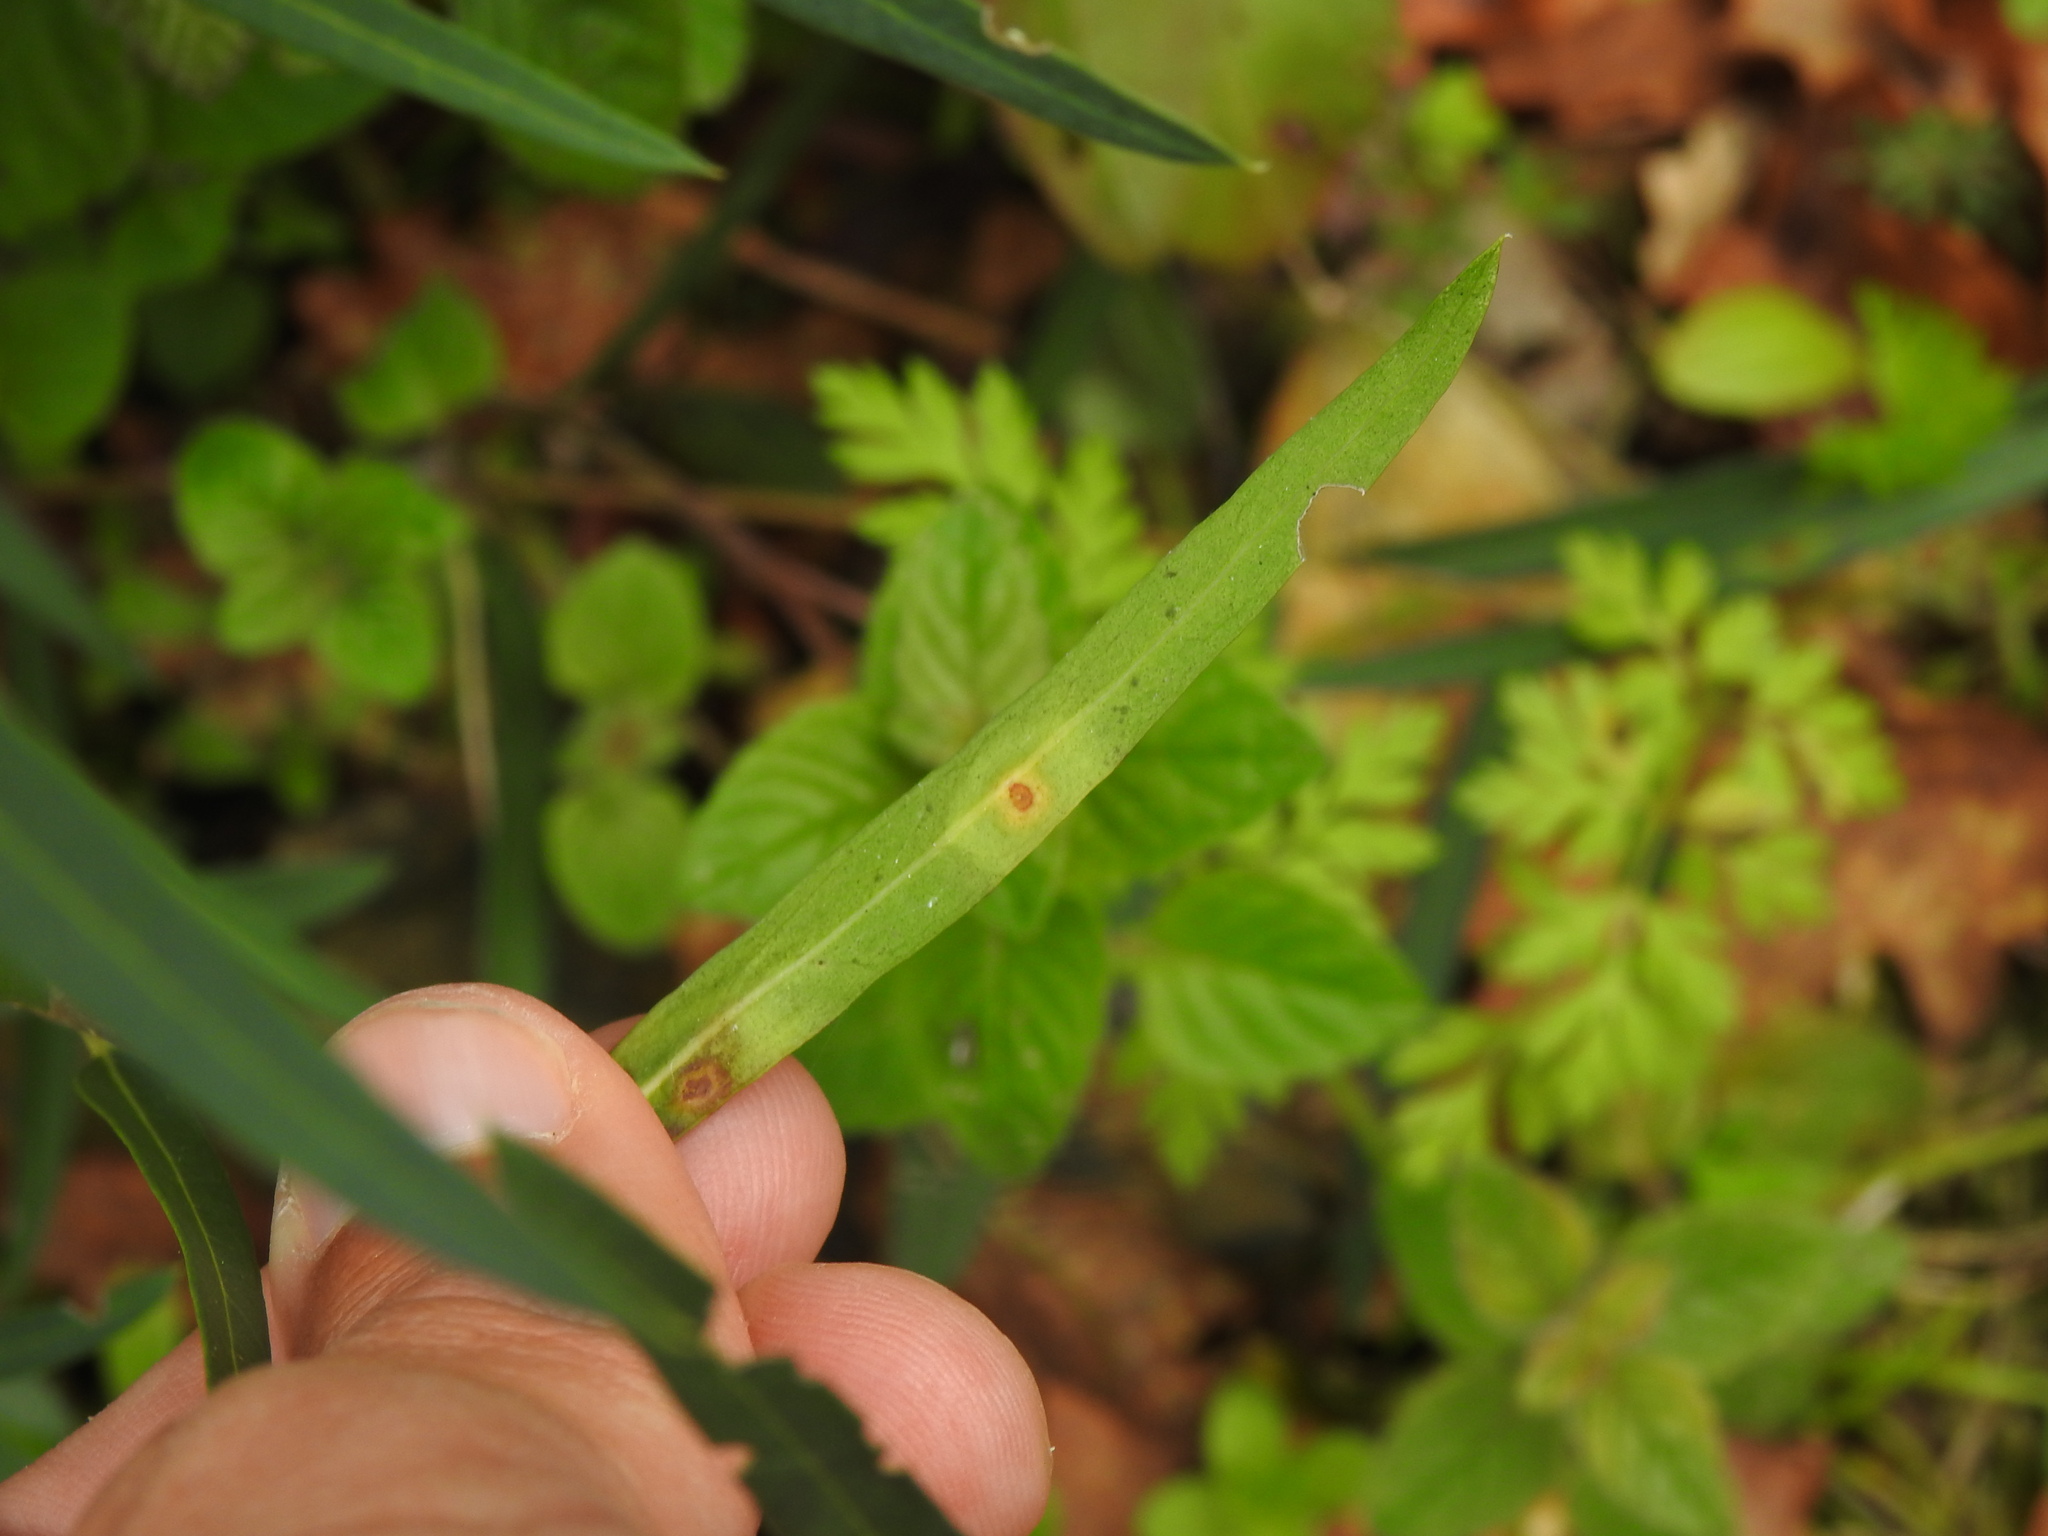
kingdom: Animalia
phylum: Arthropoda
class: Insecta
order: Diptera
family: Cecidomyiidae
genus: Braueriella
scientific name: Braueriella phillyreae
